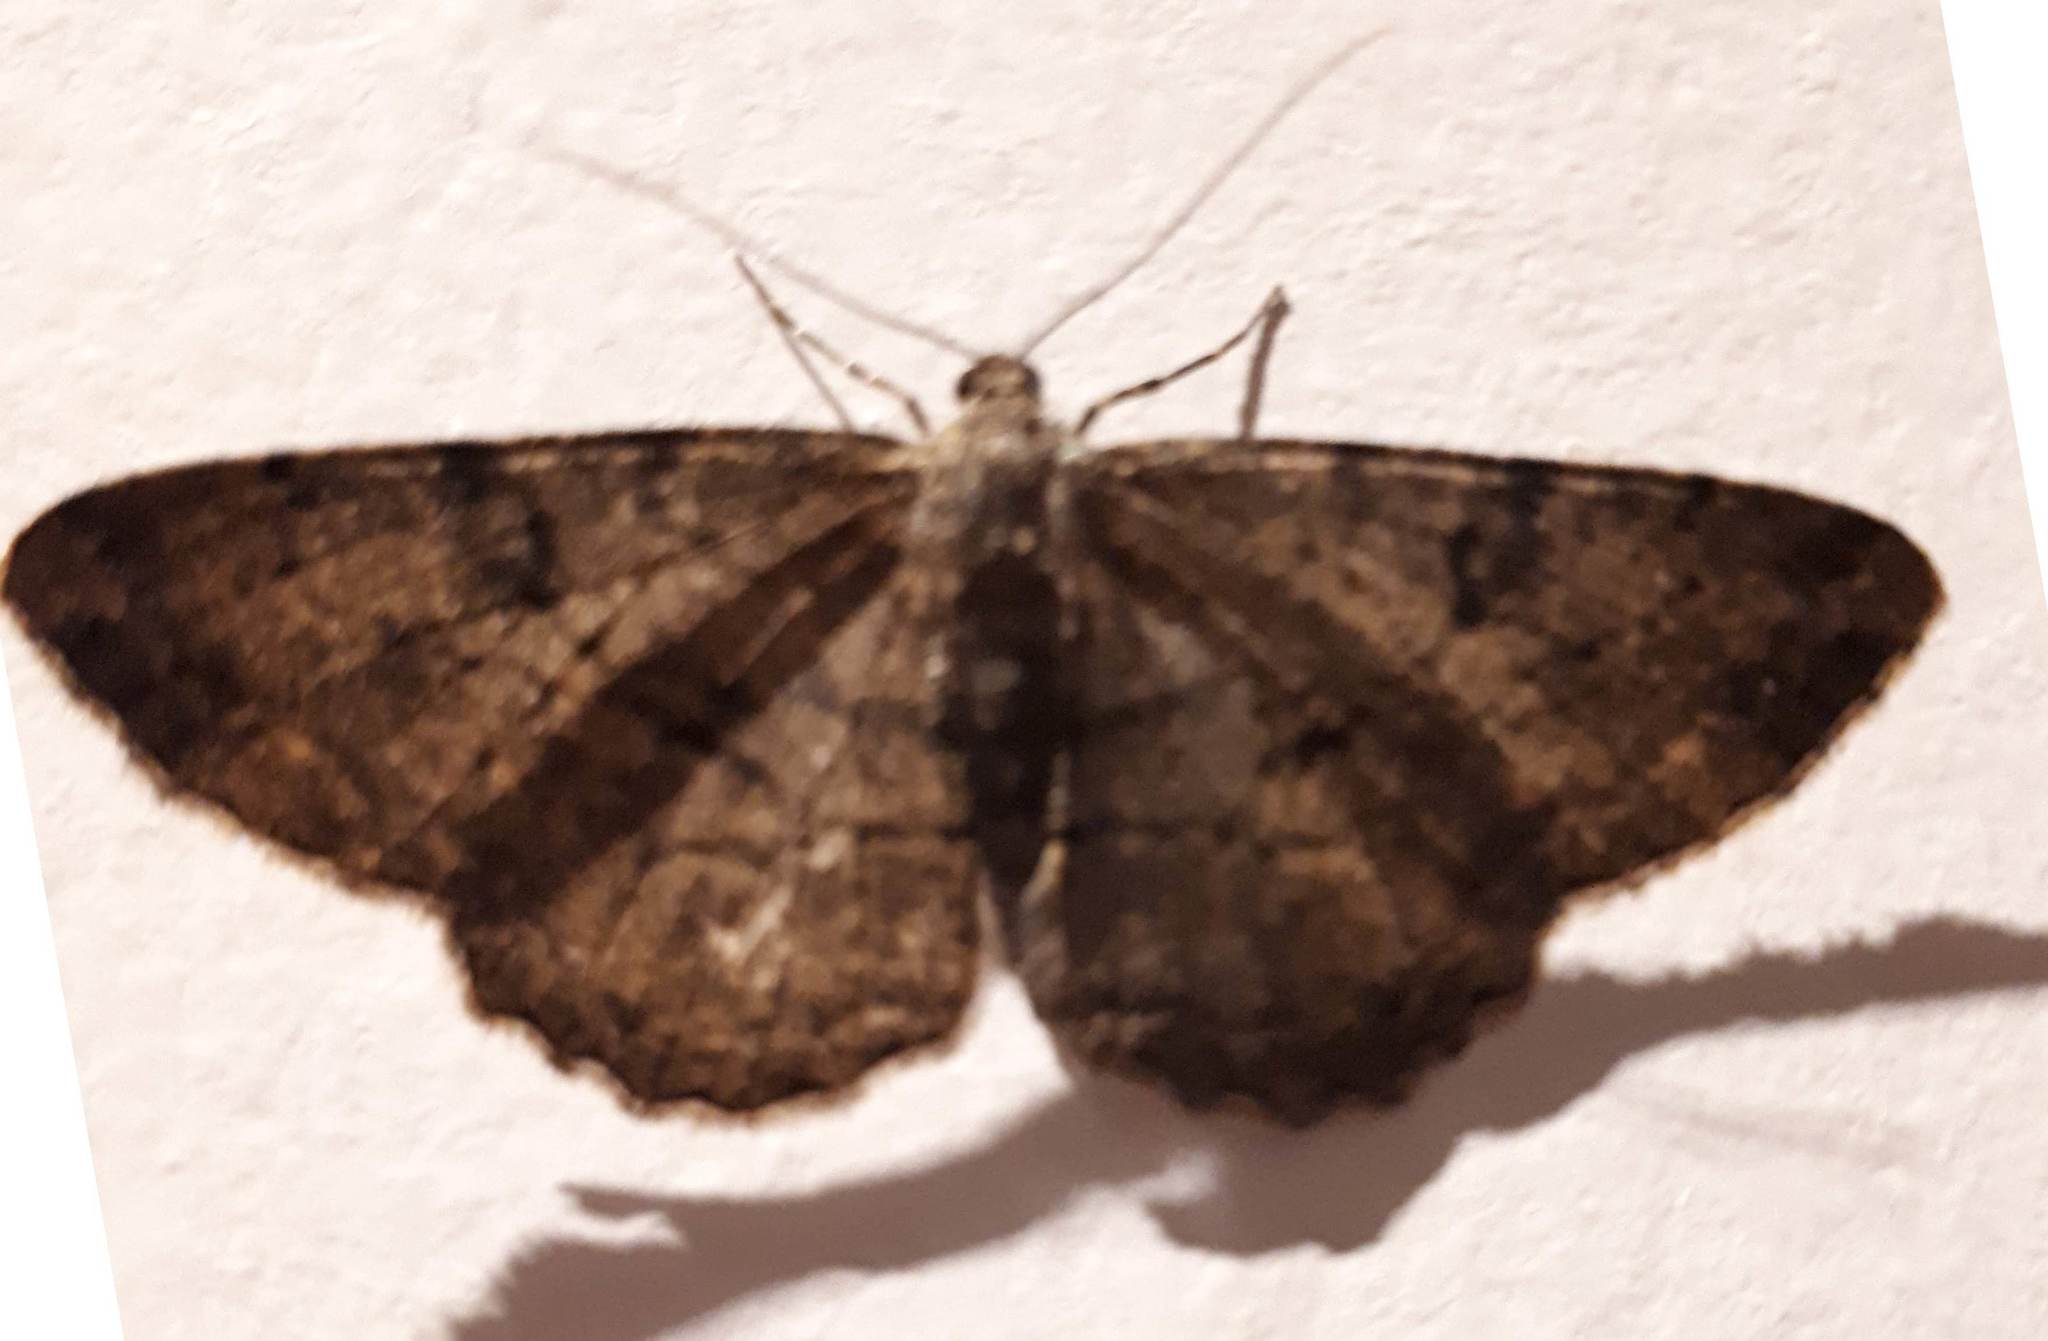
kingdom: Animalia
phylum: Arthropoda
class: Insecta
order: Lepidoptera
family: Geometridae
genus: Peribatodes
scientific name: Peribatodes rhomboidaria
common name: Willow beauty
